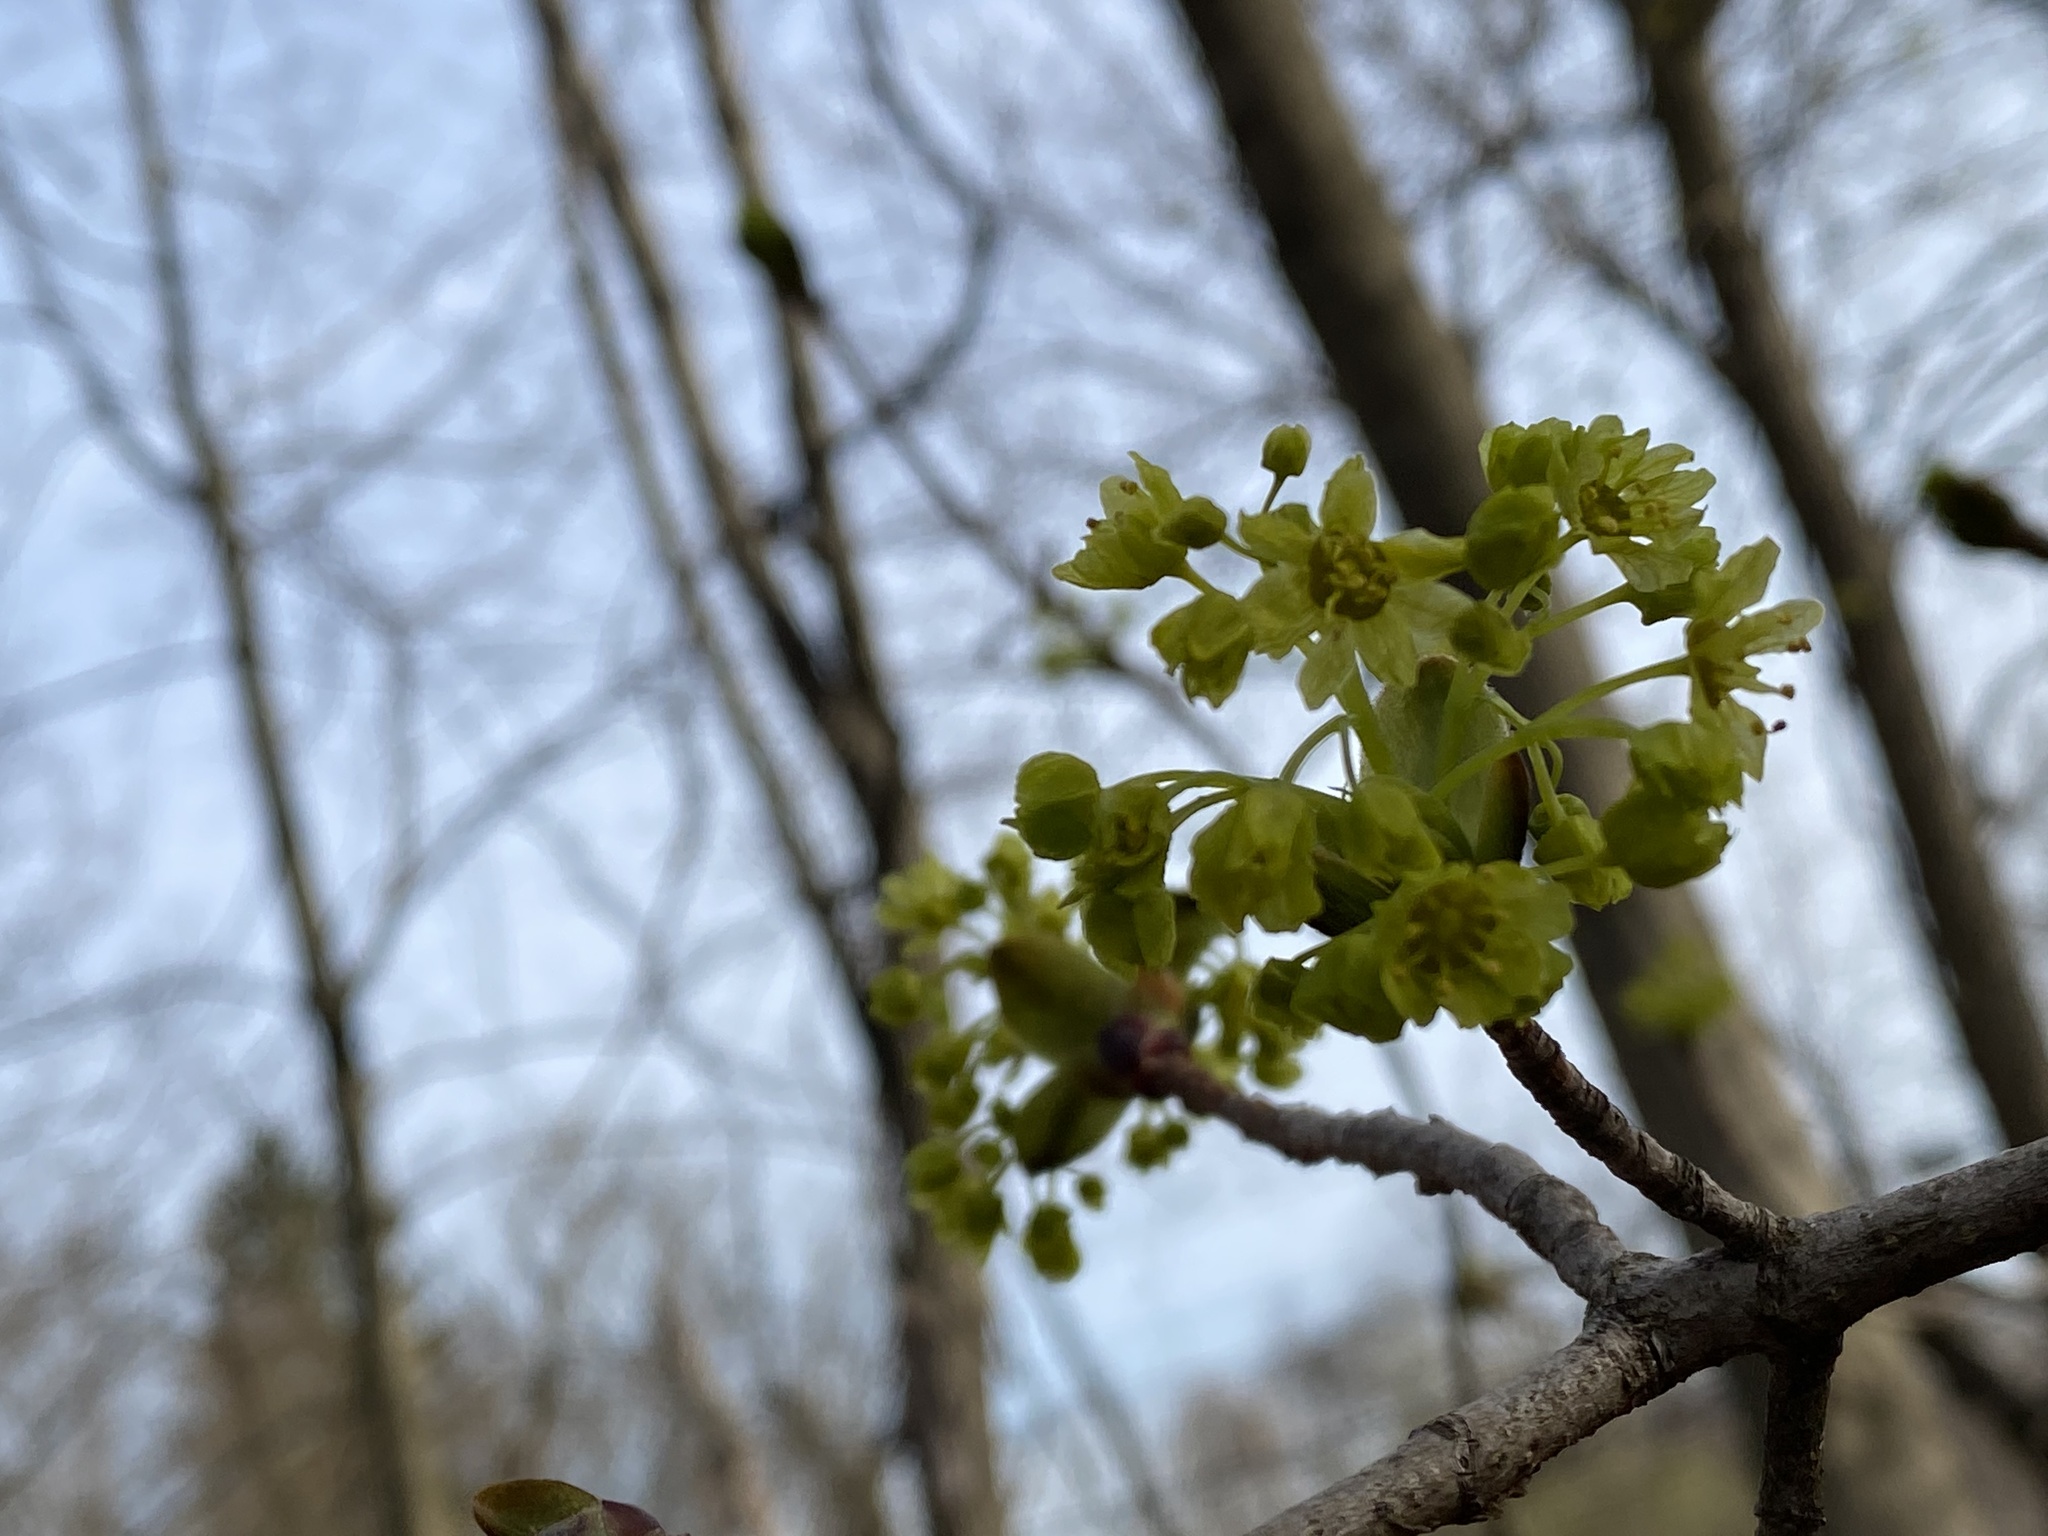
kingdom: Plantae
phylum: Tracheophyta
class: Magnoliopsida
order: Sapindales
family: Sapindaceae
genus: Acer
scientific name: Acer platanoides
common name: Norway maple
